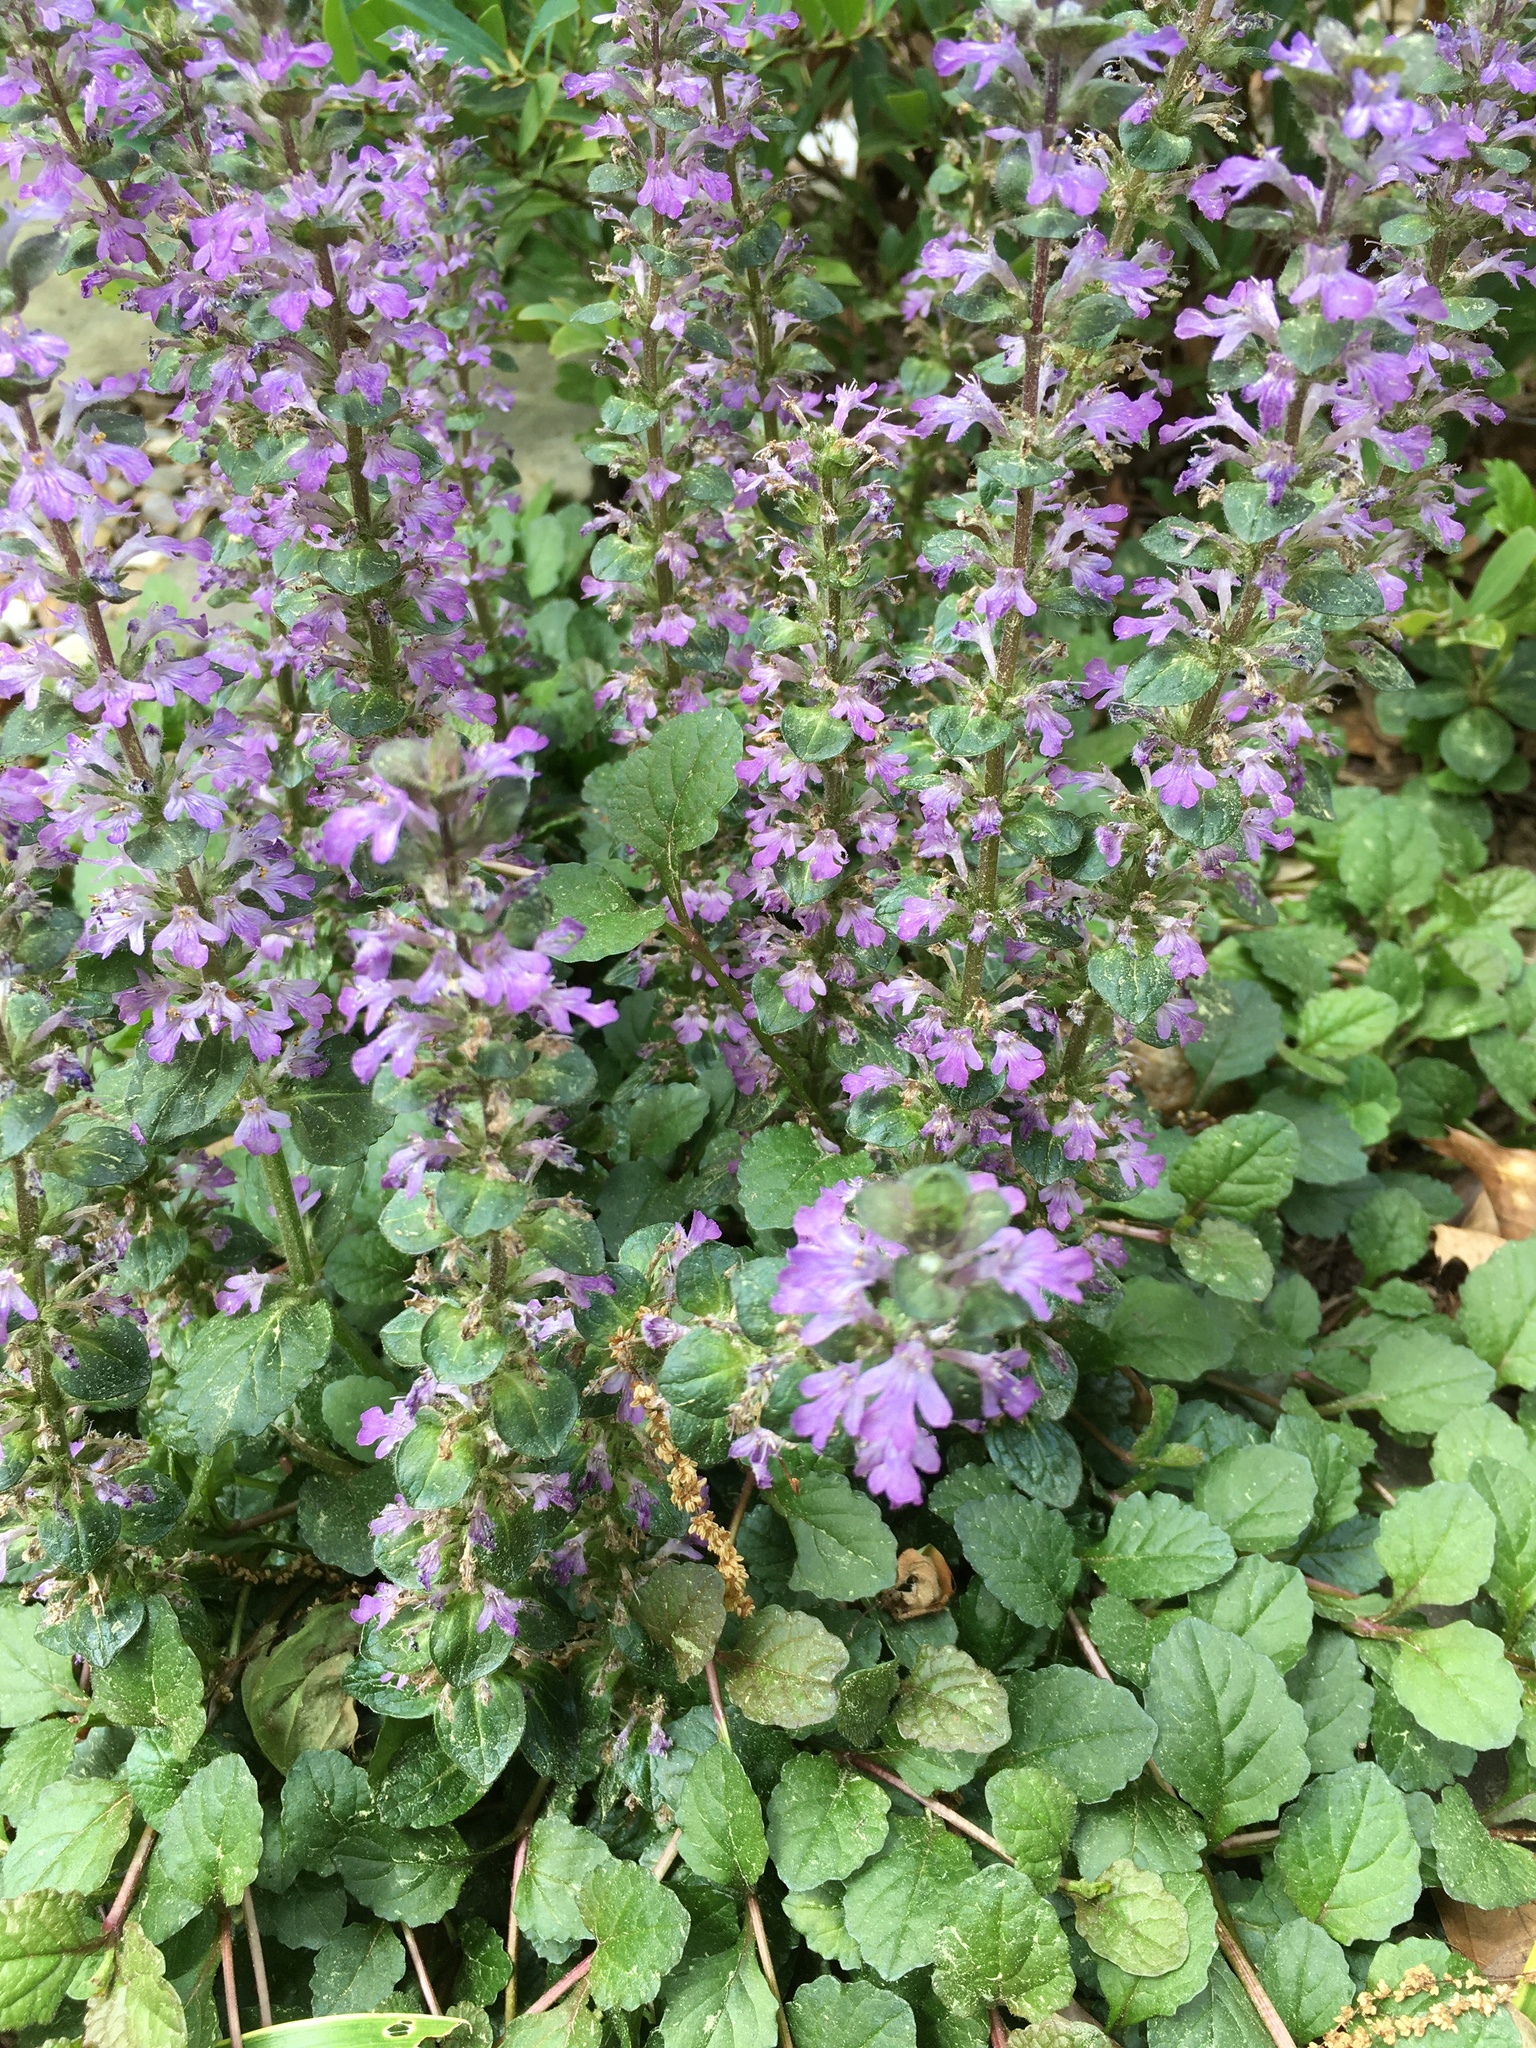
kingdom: Plantae
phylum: Tracheophyta
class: Magnoliopsida
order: Lamiales
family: Lamiaceae
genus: Ajuga
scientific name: Ajuga reptans
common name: Bugle
